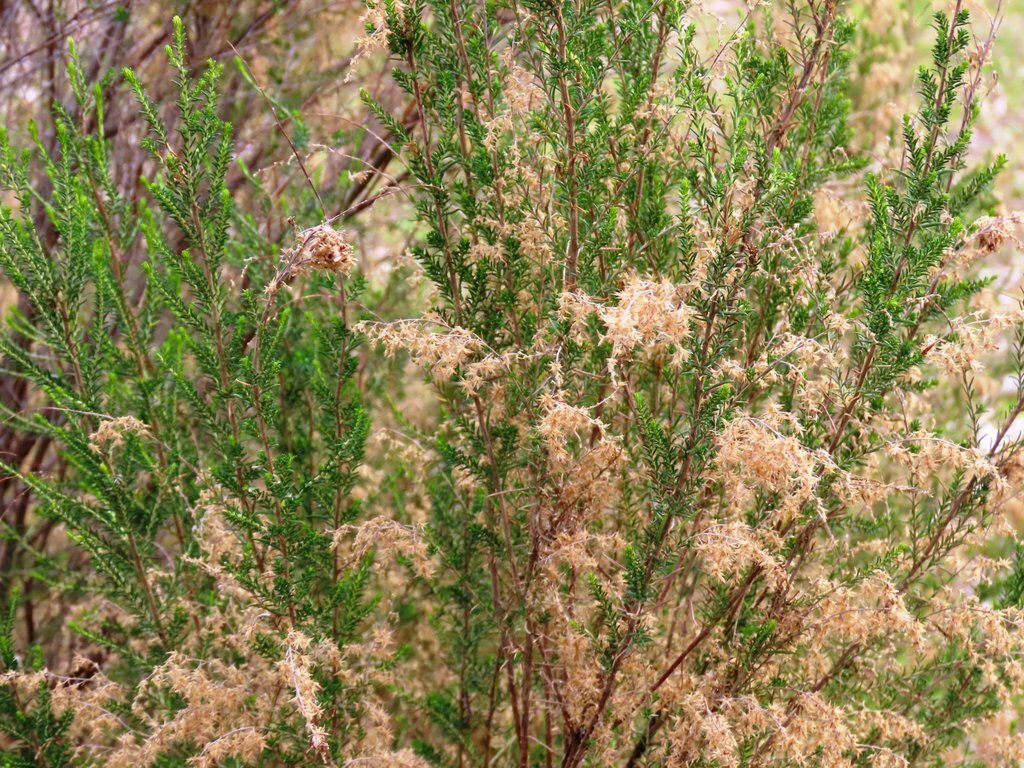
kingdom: Plantae
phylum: Tracheophyta
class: Magnoliopsida
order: Asterales
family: Asteraceae
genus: Cassinia
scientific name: Cassinia sifton
